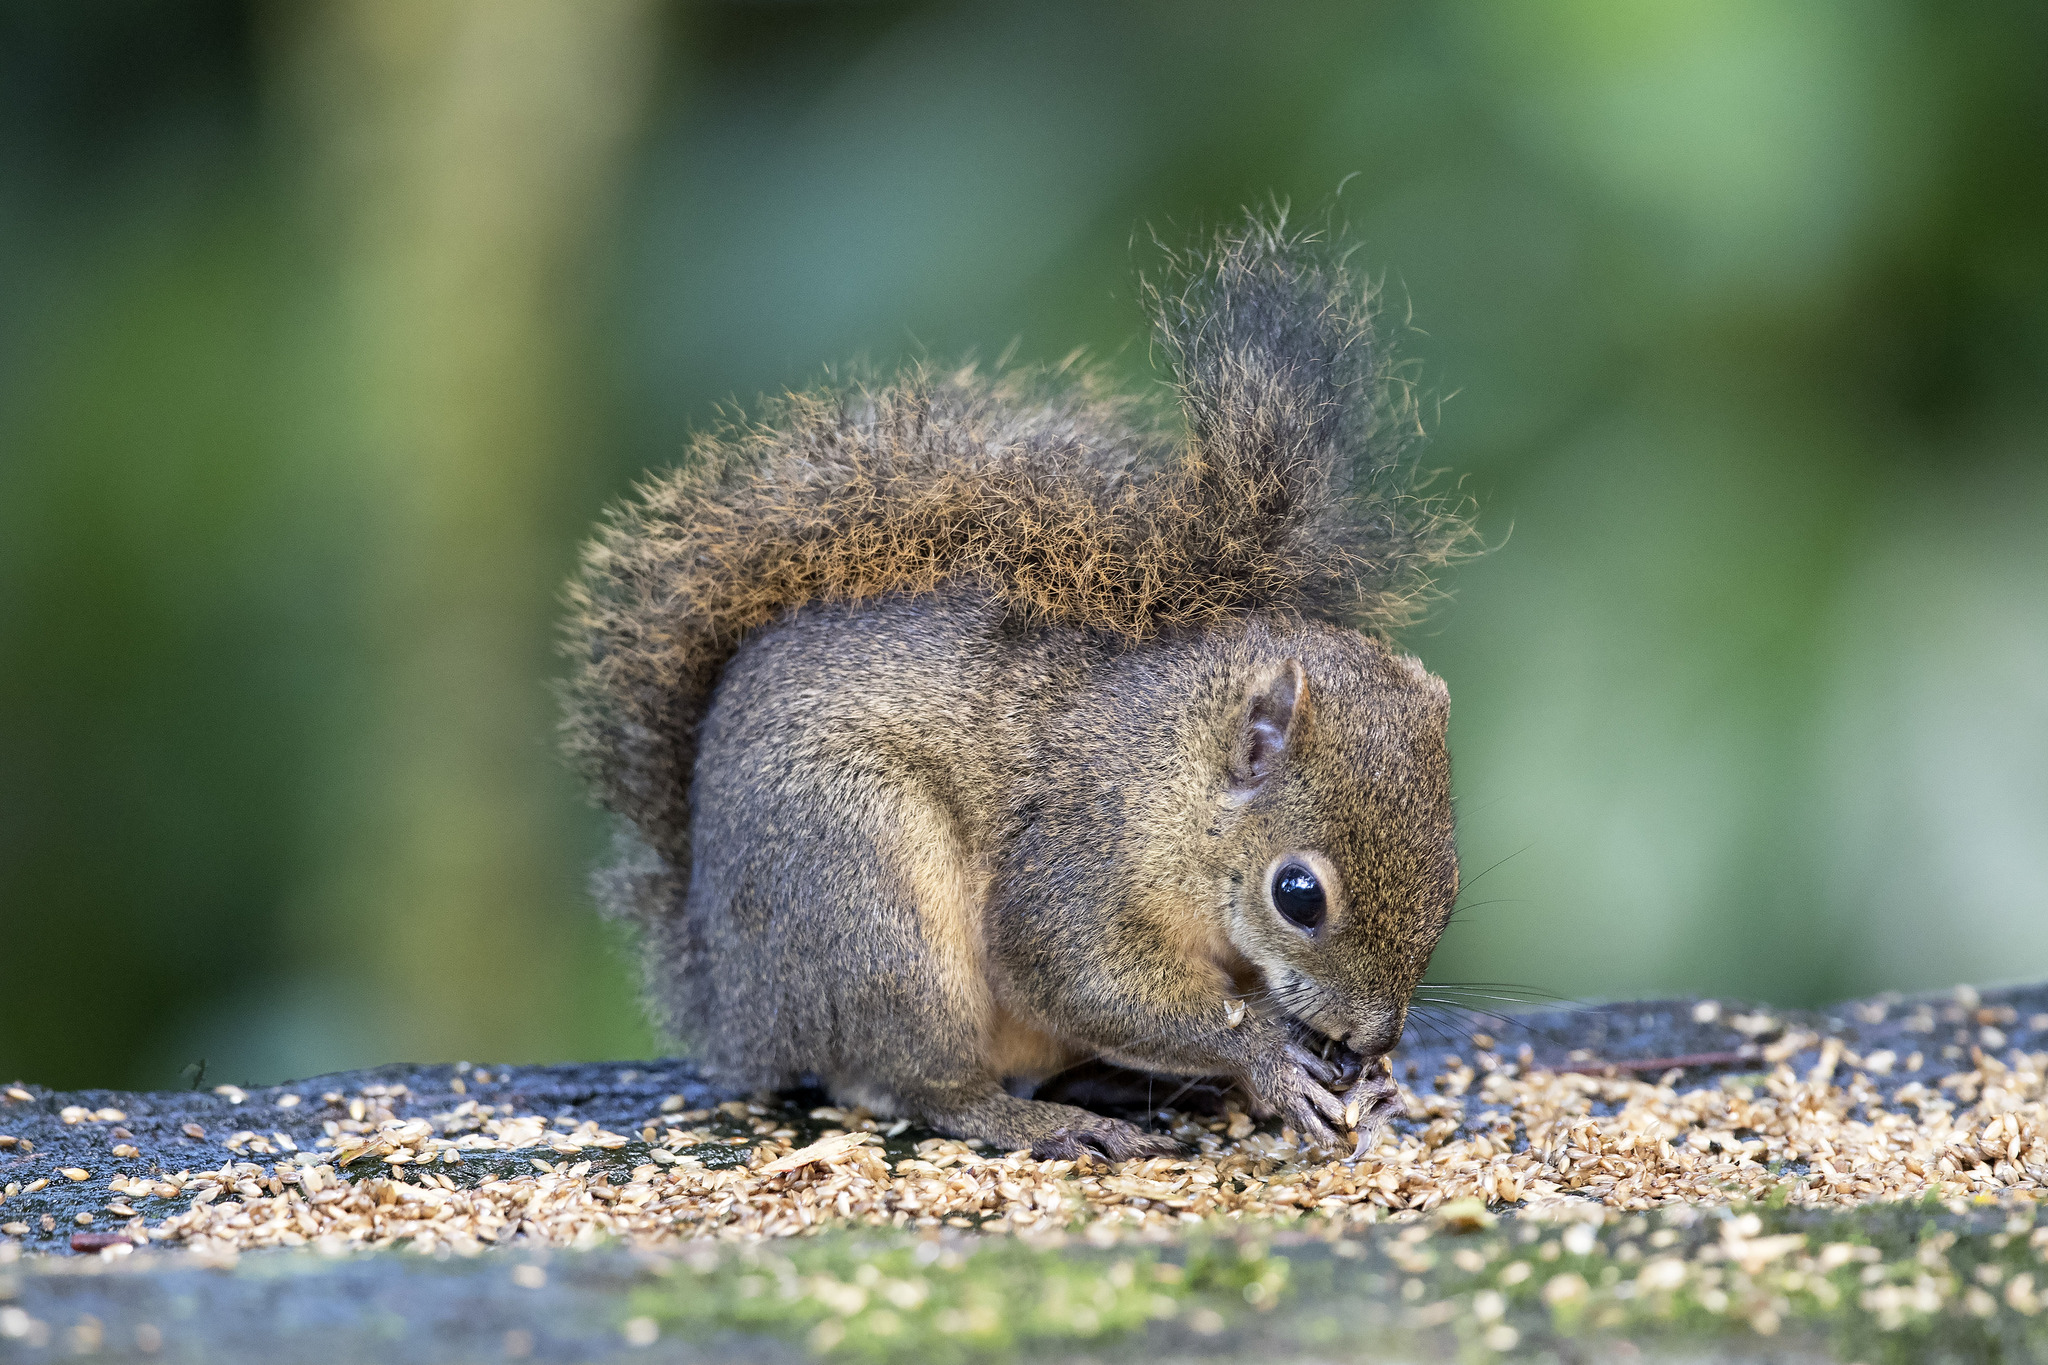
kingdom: Animalia
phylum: Chordata
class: Mammalia
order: Rodentia
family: Sciuridae
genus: Sciurus
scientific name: Sciurus granatensis
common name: Red-tailed squirrel
